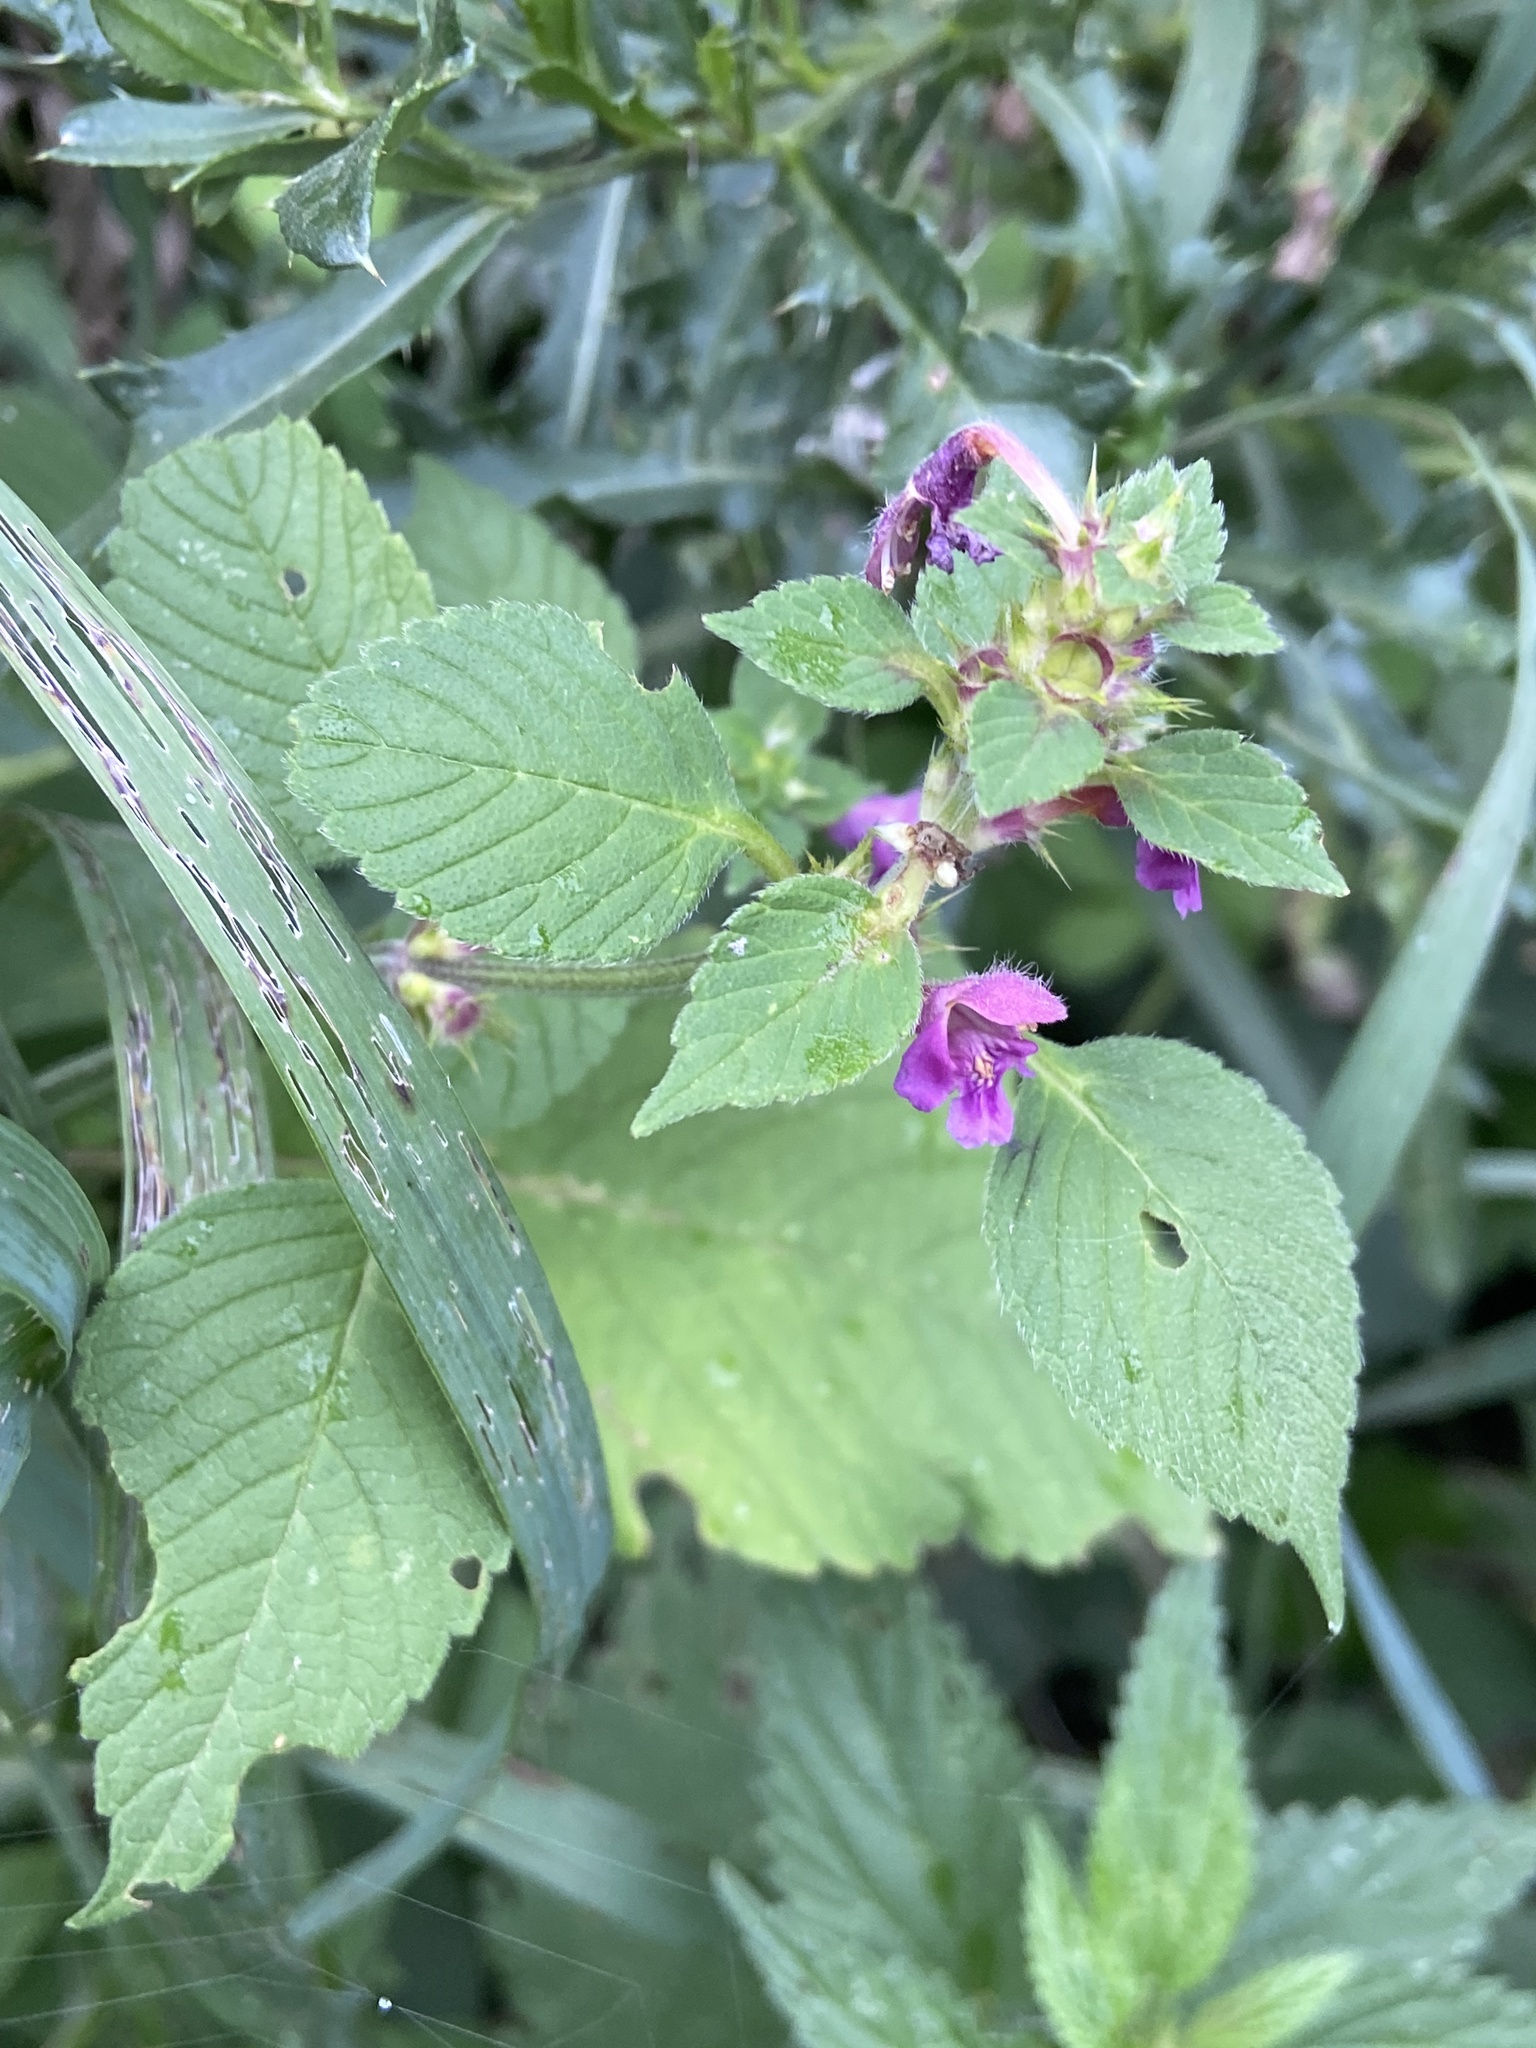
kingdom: Plantae
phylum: Tracheophyta
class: Magnoliopsida
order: Lamiales
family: Lamiaceae
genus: Galeopsis
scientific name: Galeopsis pubescens
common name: Downy hemp-nettle
